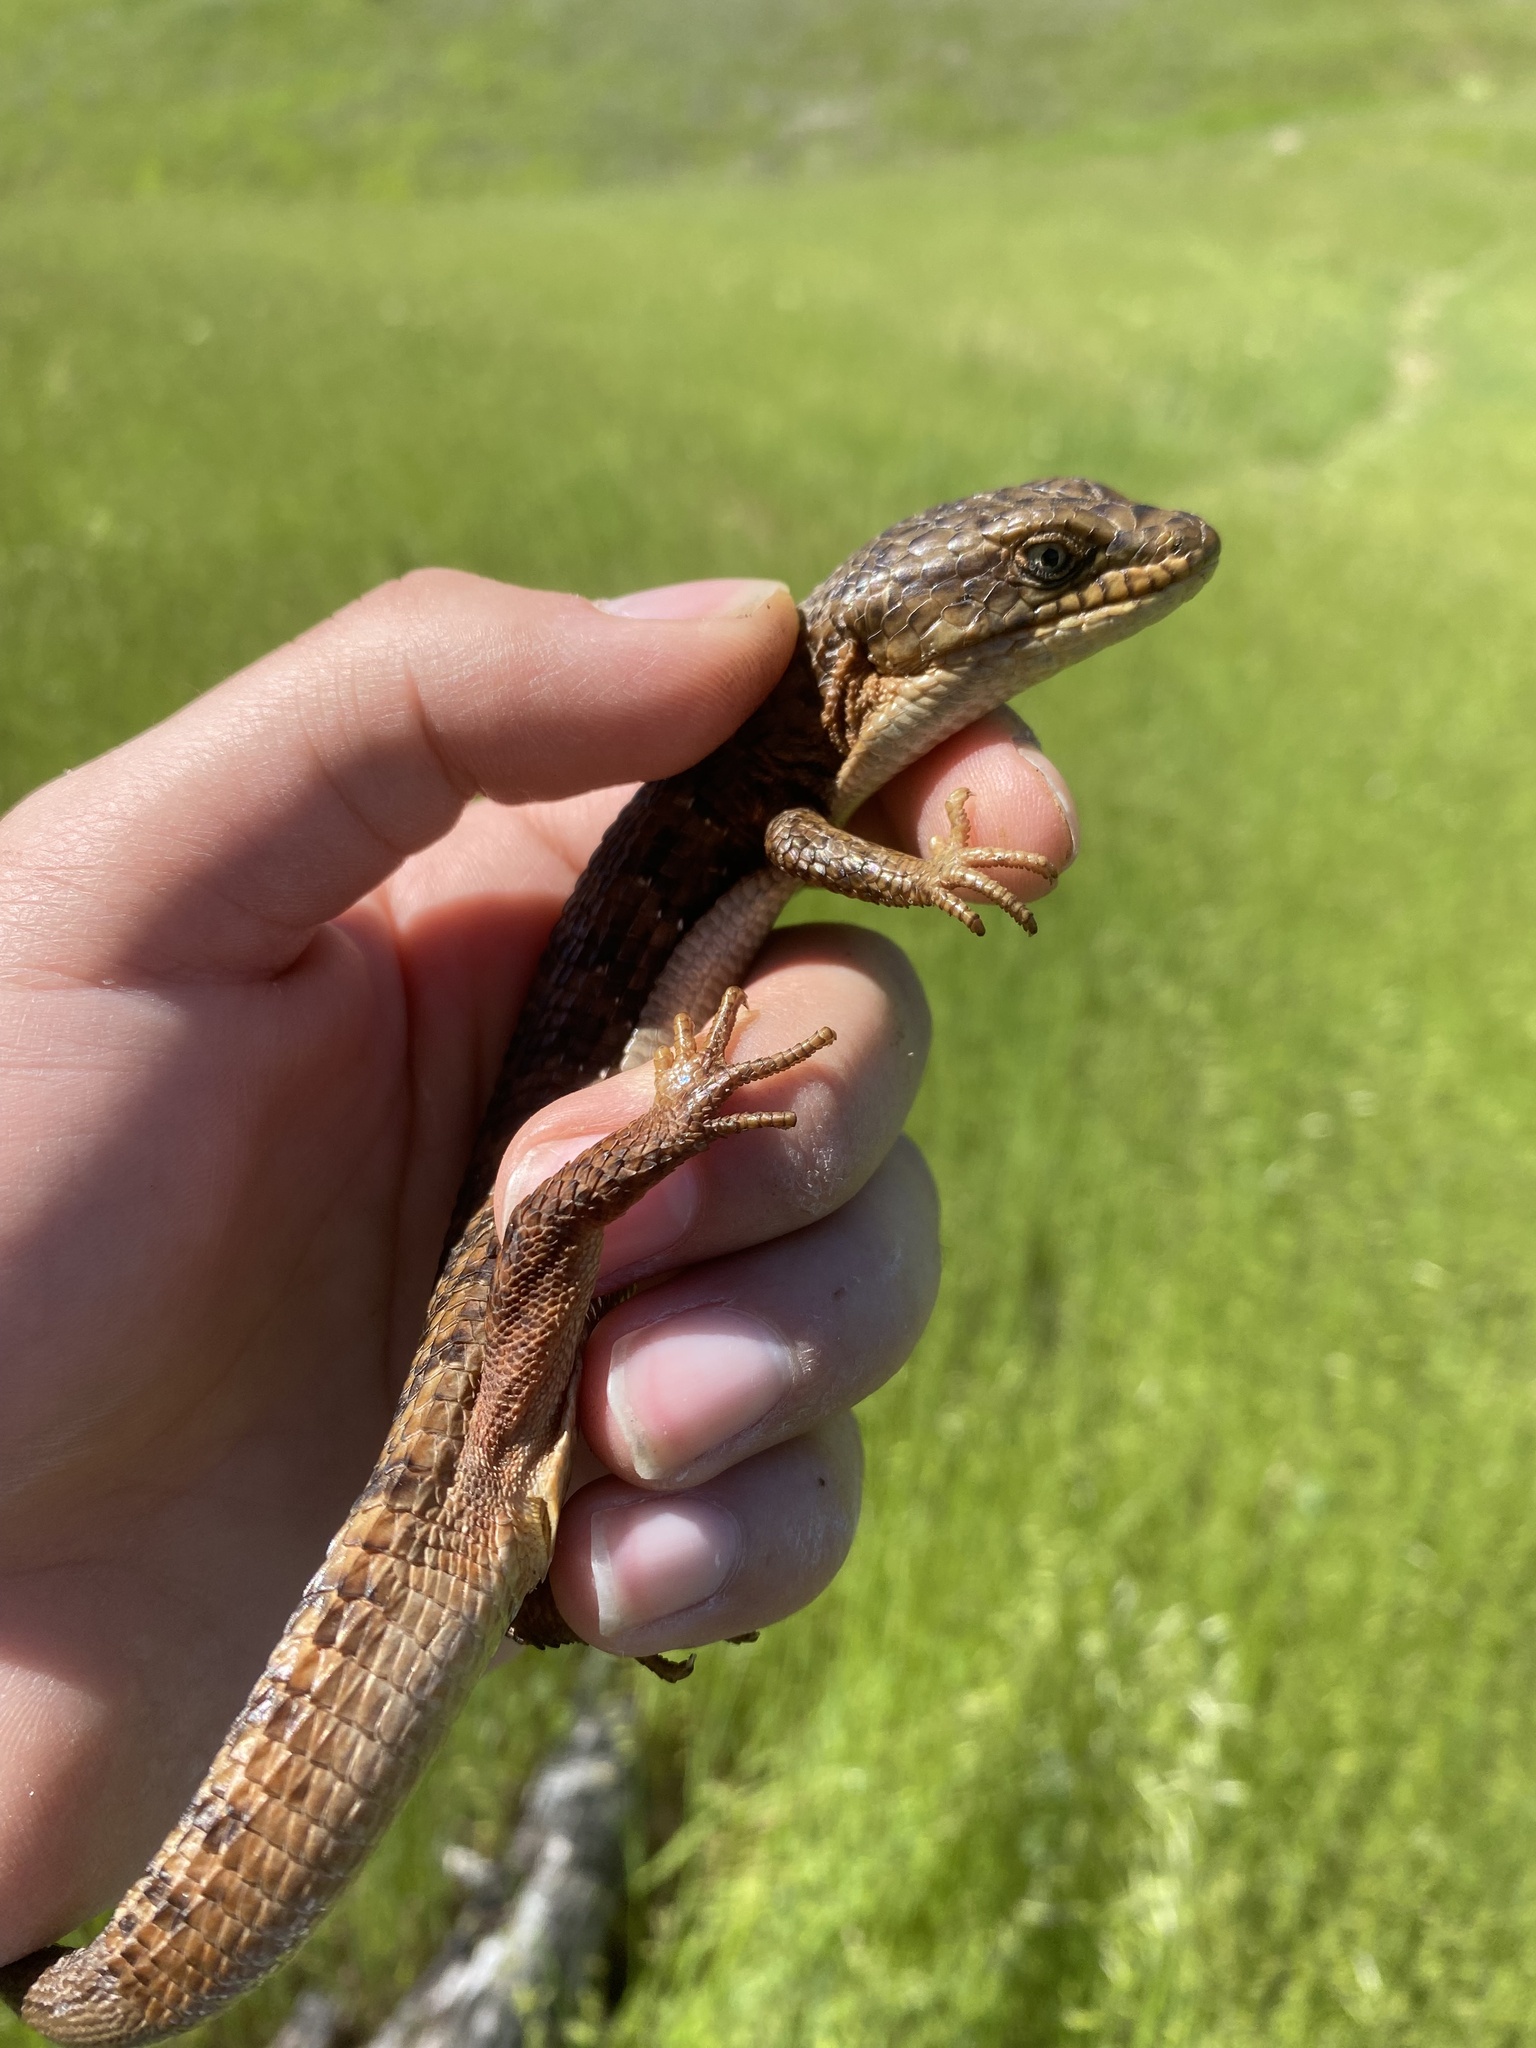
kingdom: Animalia
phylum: Chordata
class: Squamata
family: Anguidae
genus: Elgaria
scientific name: Elgaria multicarinata
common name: Southern alligator lizard
